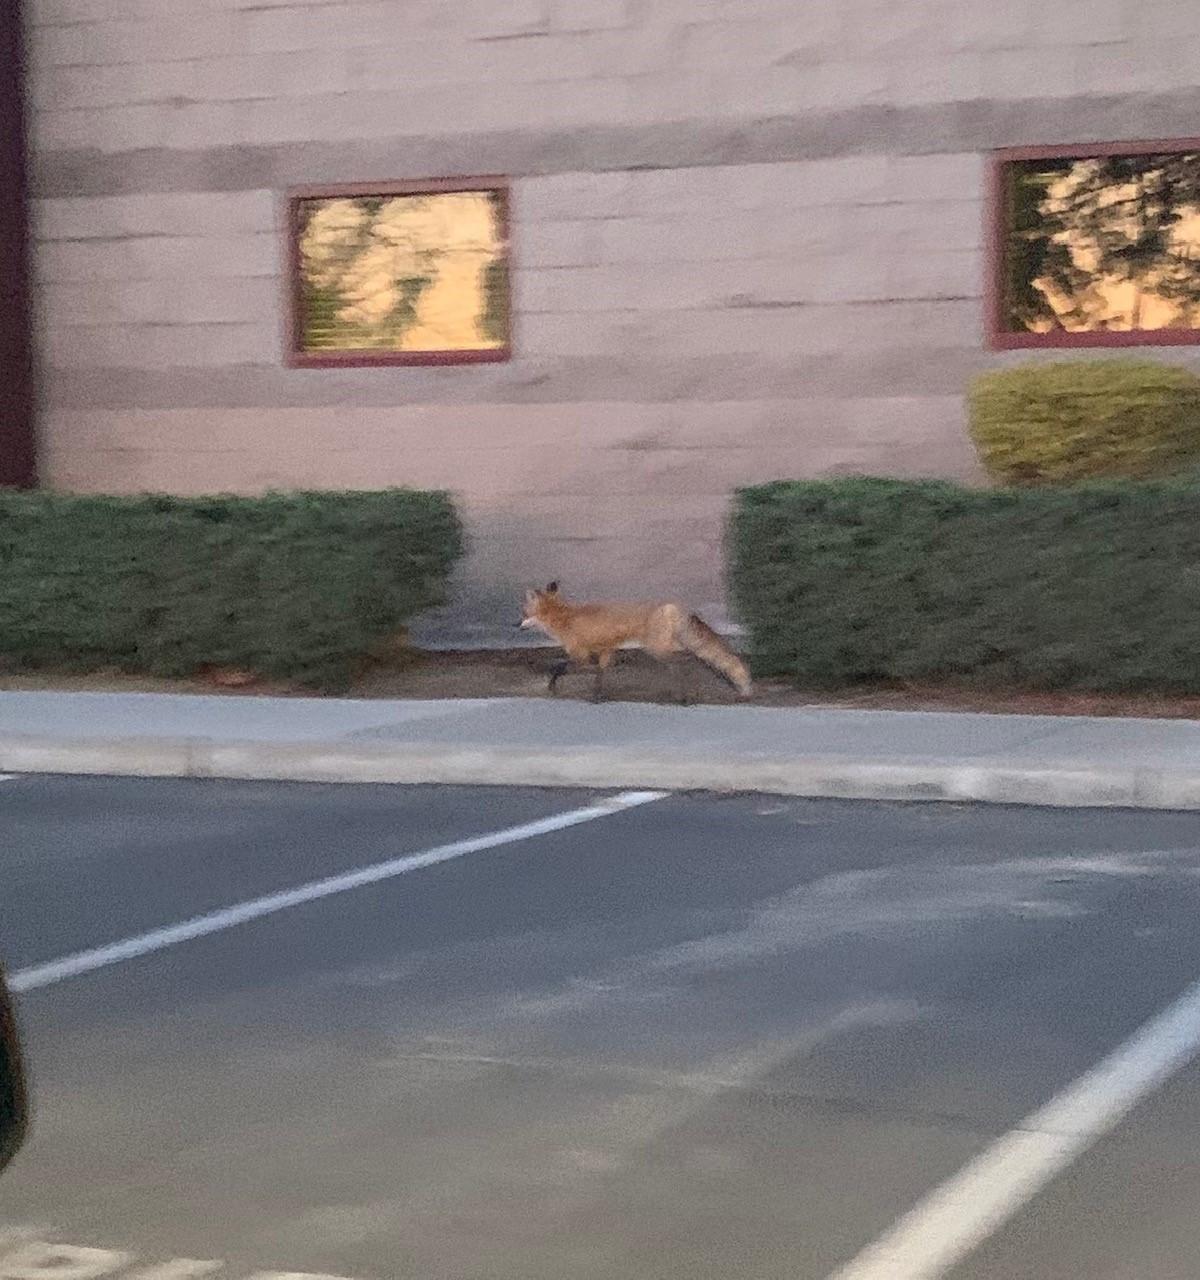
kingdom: Animalia
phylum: Chordata
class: Mammalia
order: Carnivora
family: Canidae
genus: Vulpes
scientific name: Vulpes vulpes
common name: Red fox
